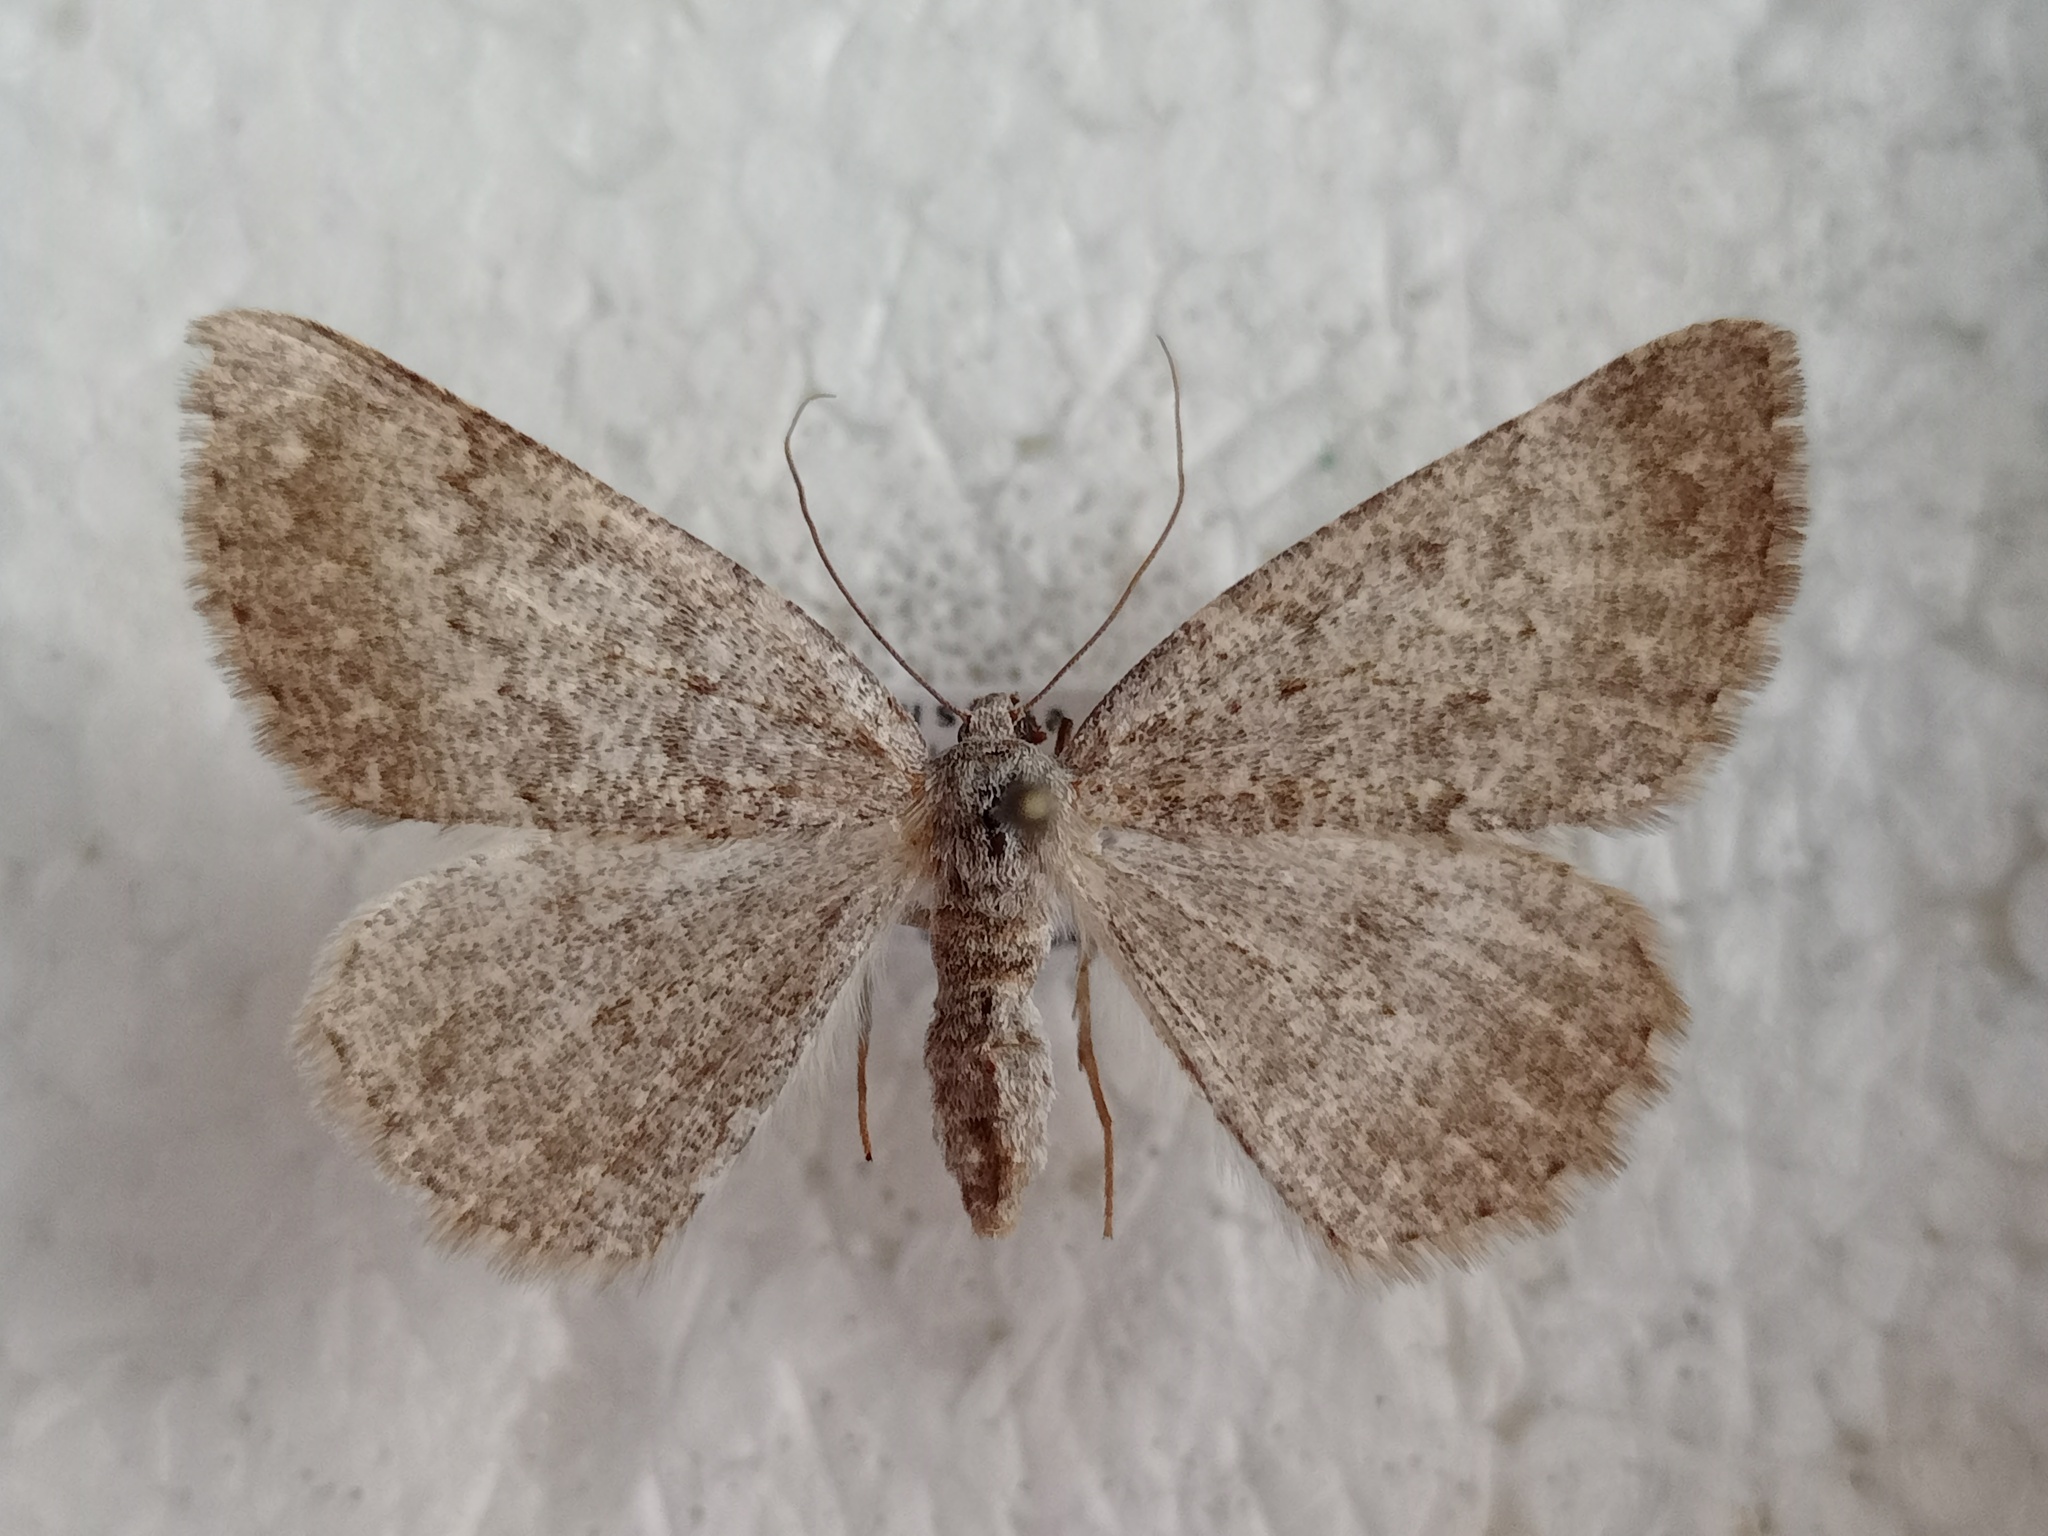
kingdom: Animalia
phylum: Arthropoda
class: Insecta
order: Lepidoptera
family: Geometridae
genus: Gnophos
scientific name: Gnophos obfuscata
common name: Scottish annulet
